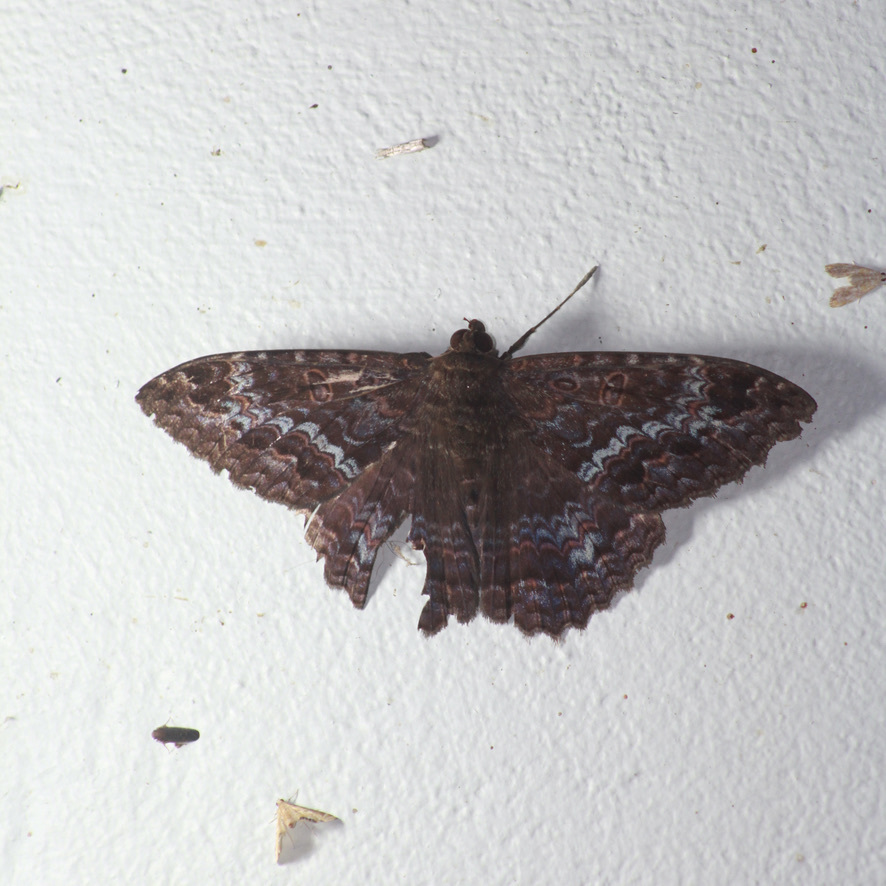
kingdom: Animalia
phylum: Arthropoda
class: Insecta
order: Lepidoptera
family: Erebidae
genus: Letis
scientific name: Letis iphianasse
